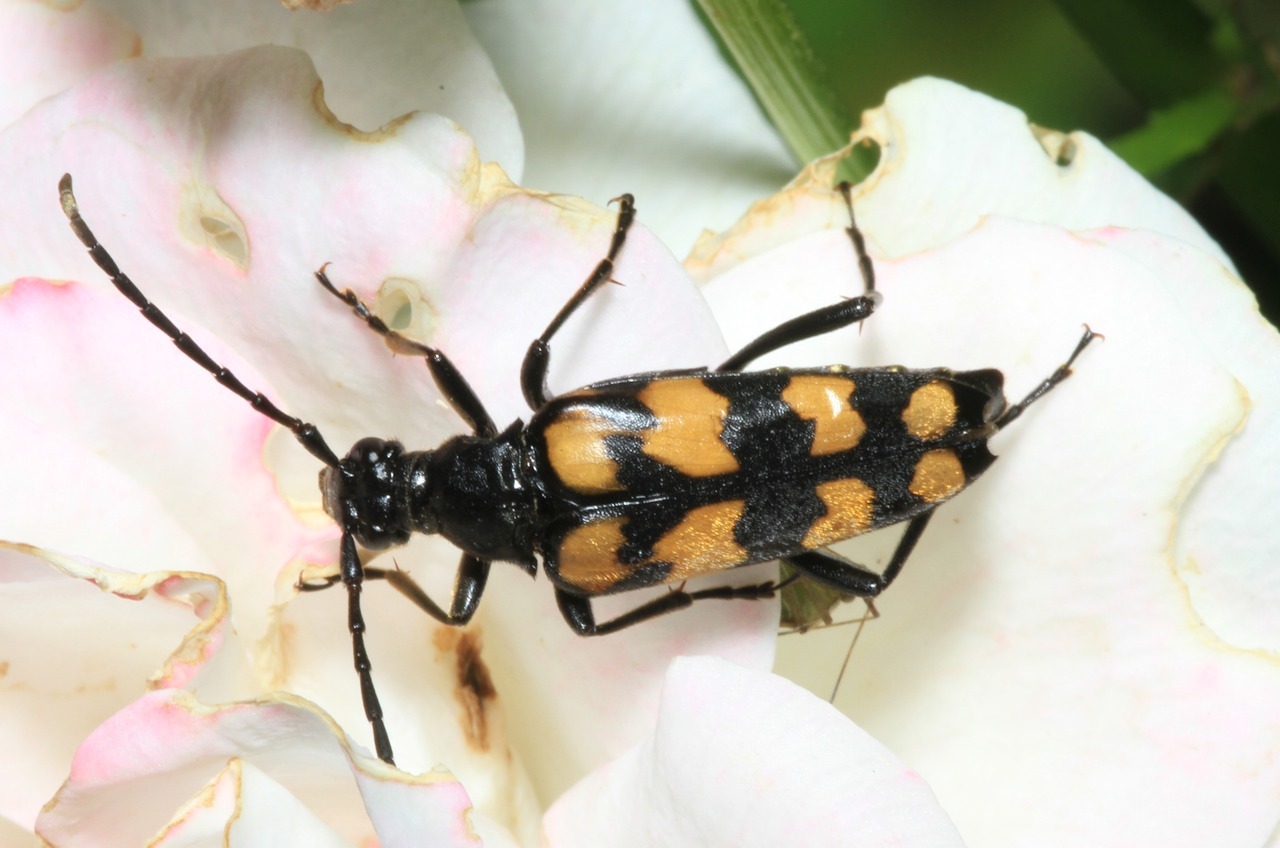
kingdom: Animalia
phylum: Arthropoda
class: Insecta
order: Coleoptera
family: Cerambycidae
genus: Leptura
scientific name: Leptura quadrifasciata
